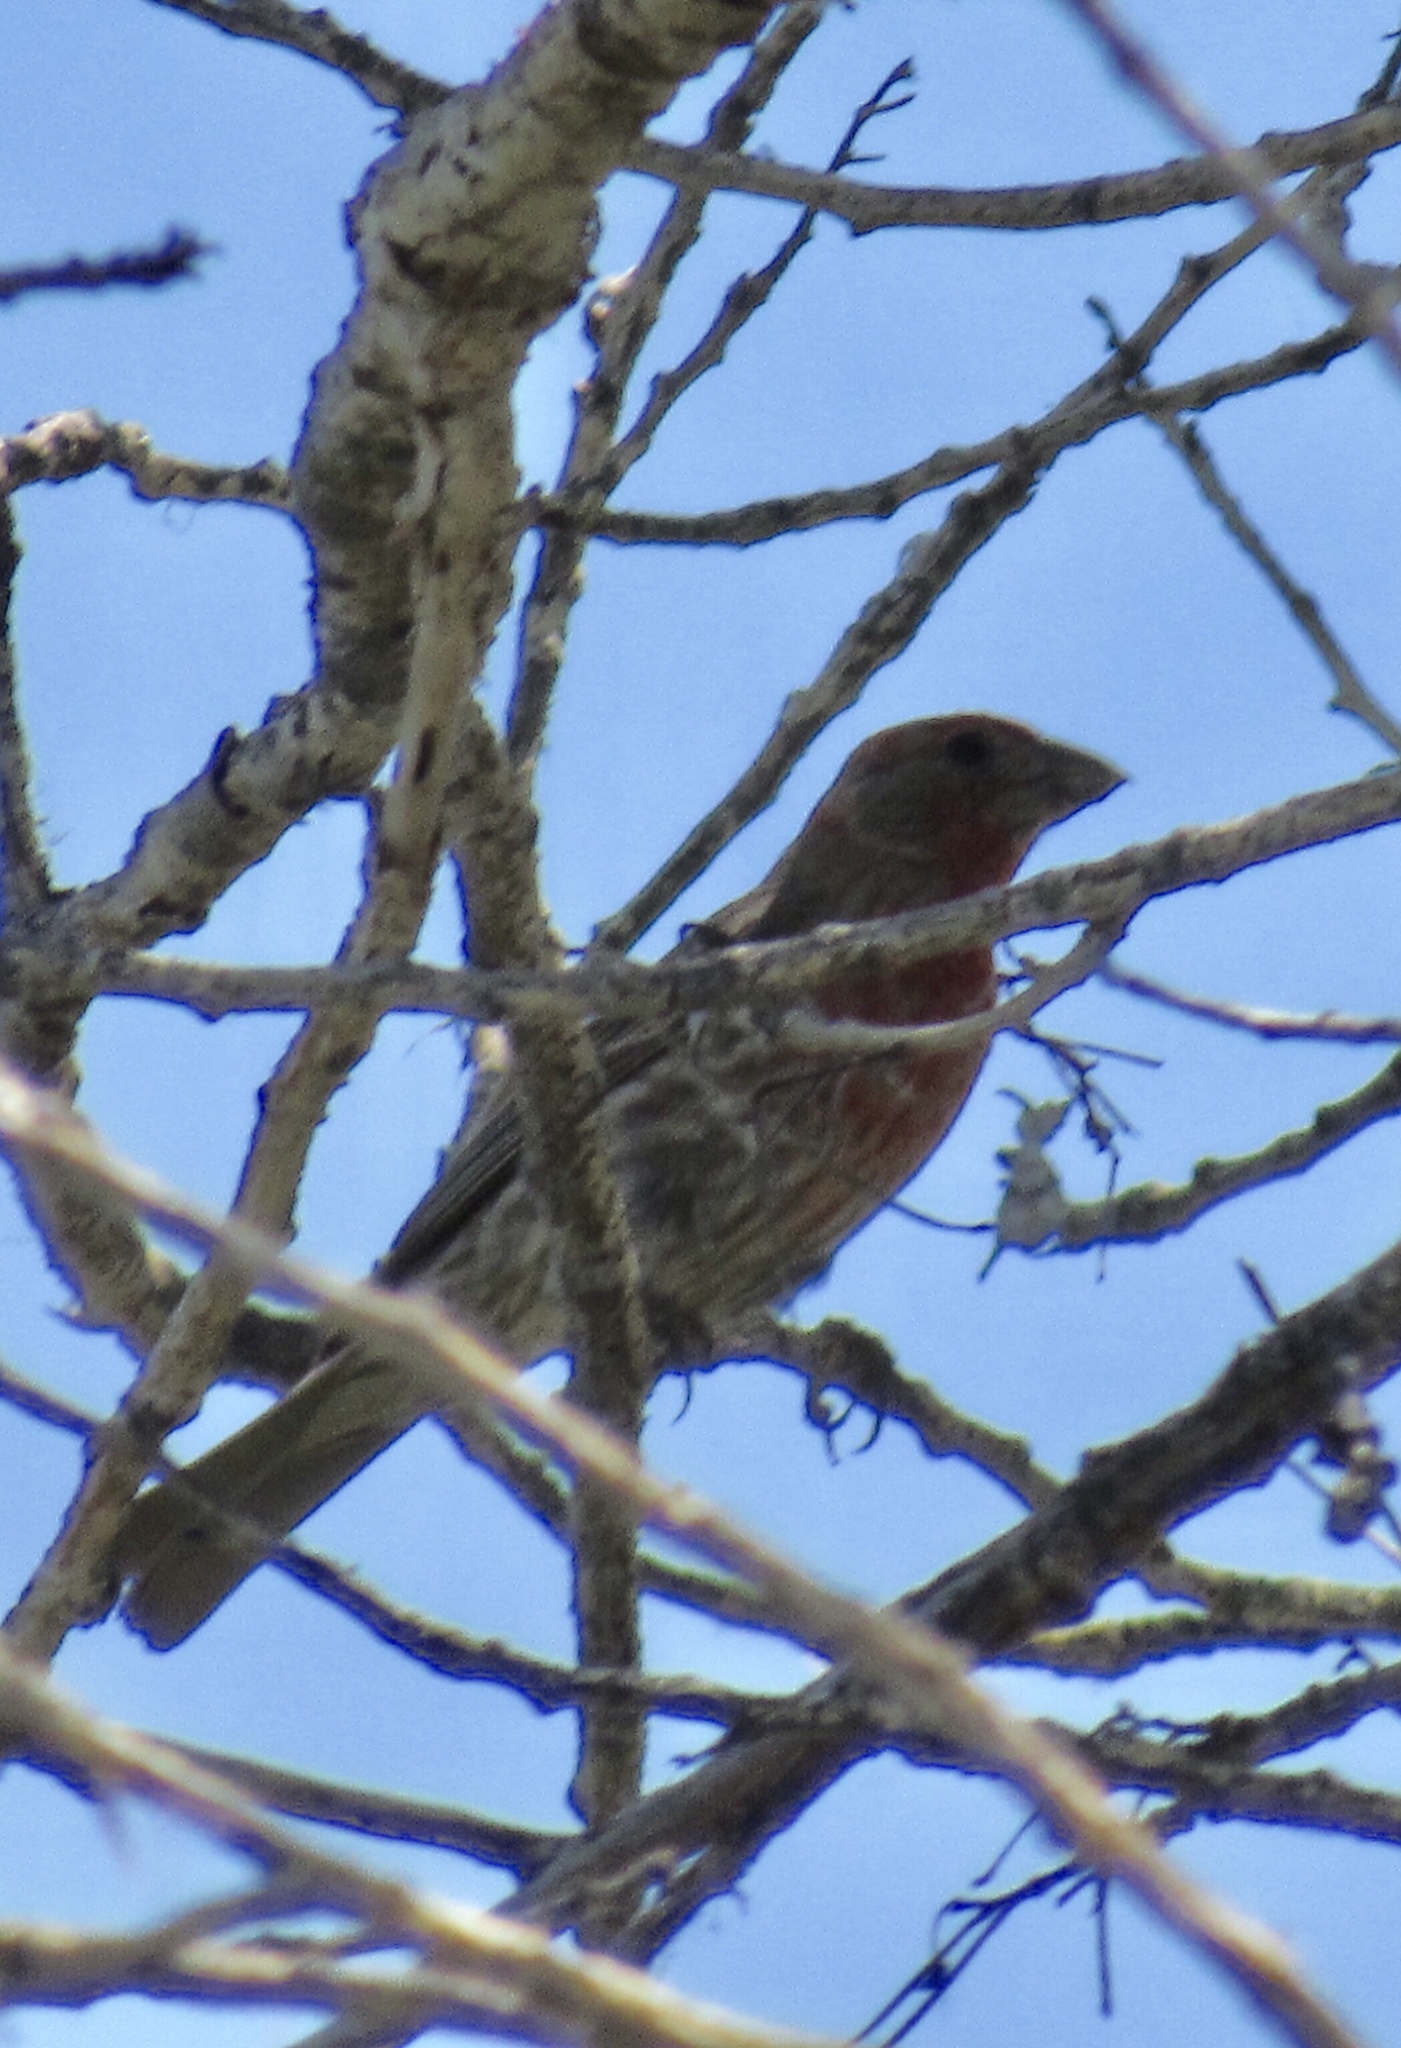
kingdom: Animalia
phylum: Chordata
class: Aves
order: Passeriformes
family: Fringillidae
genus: Haemorhous
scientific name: Haemorhous mexicanus
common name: House finch
